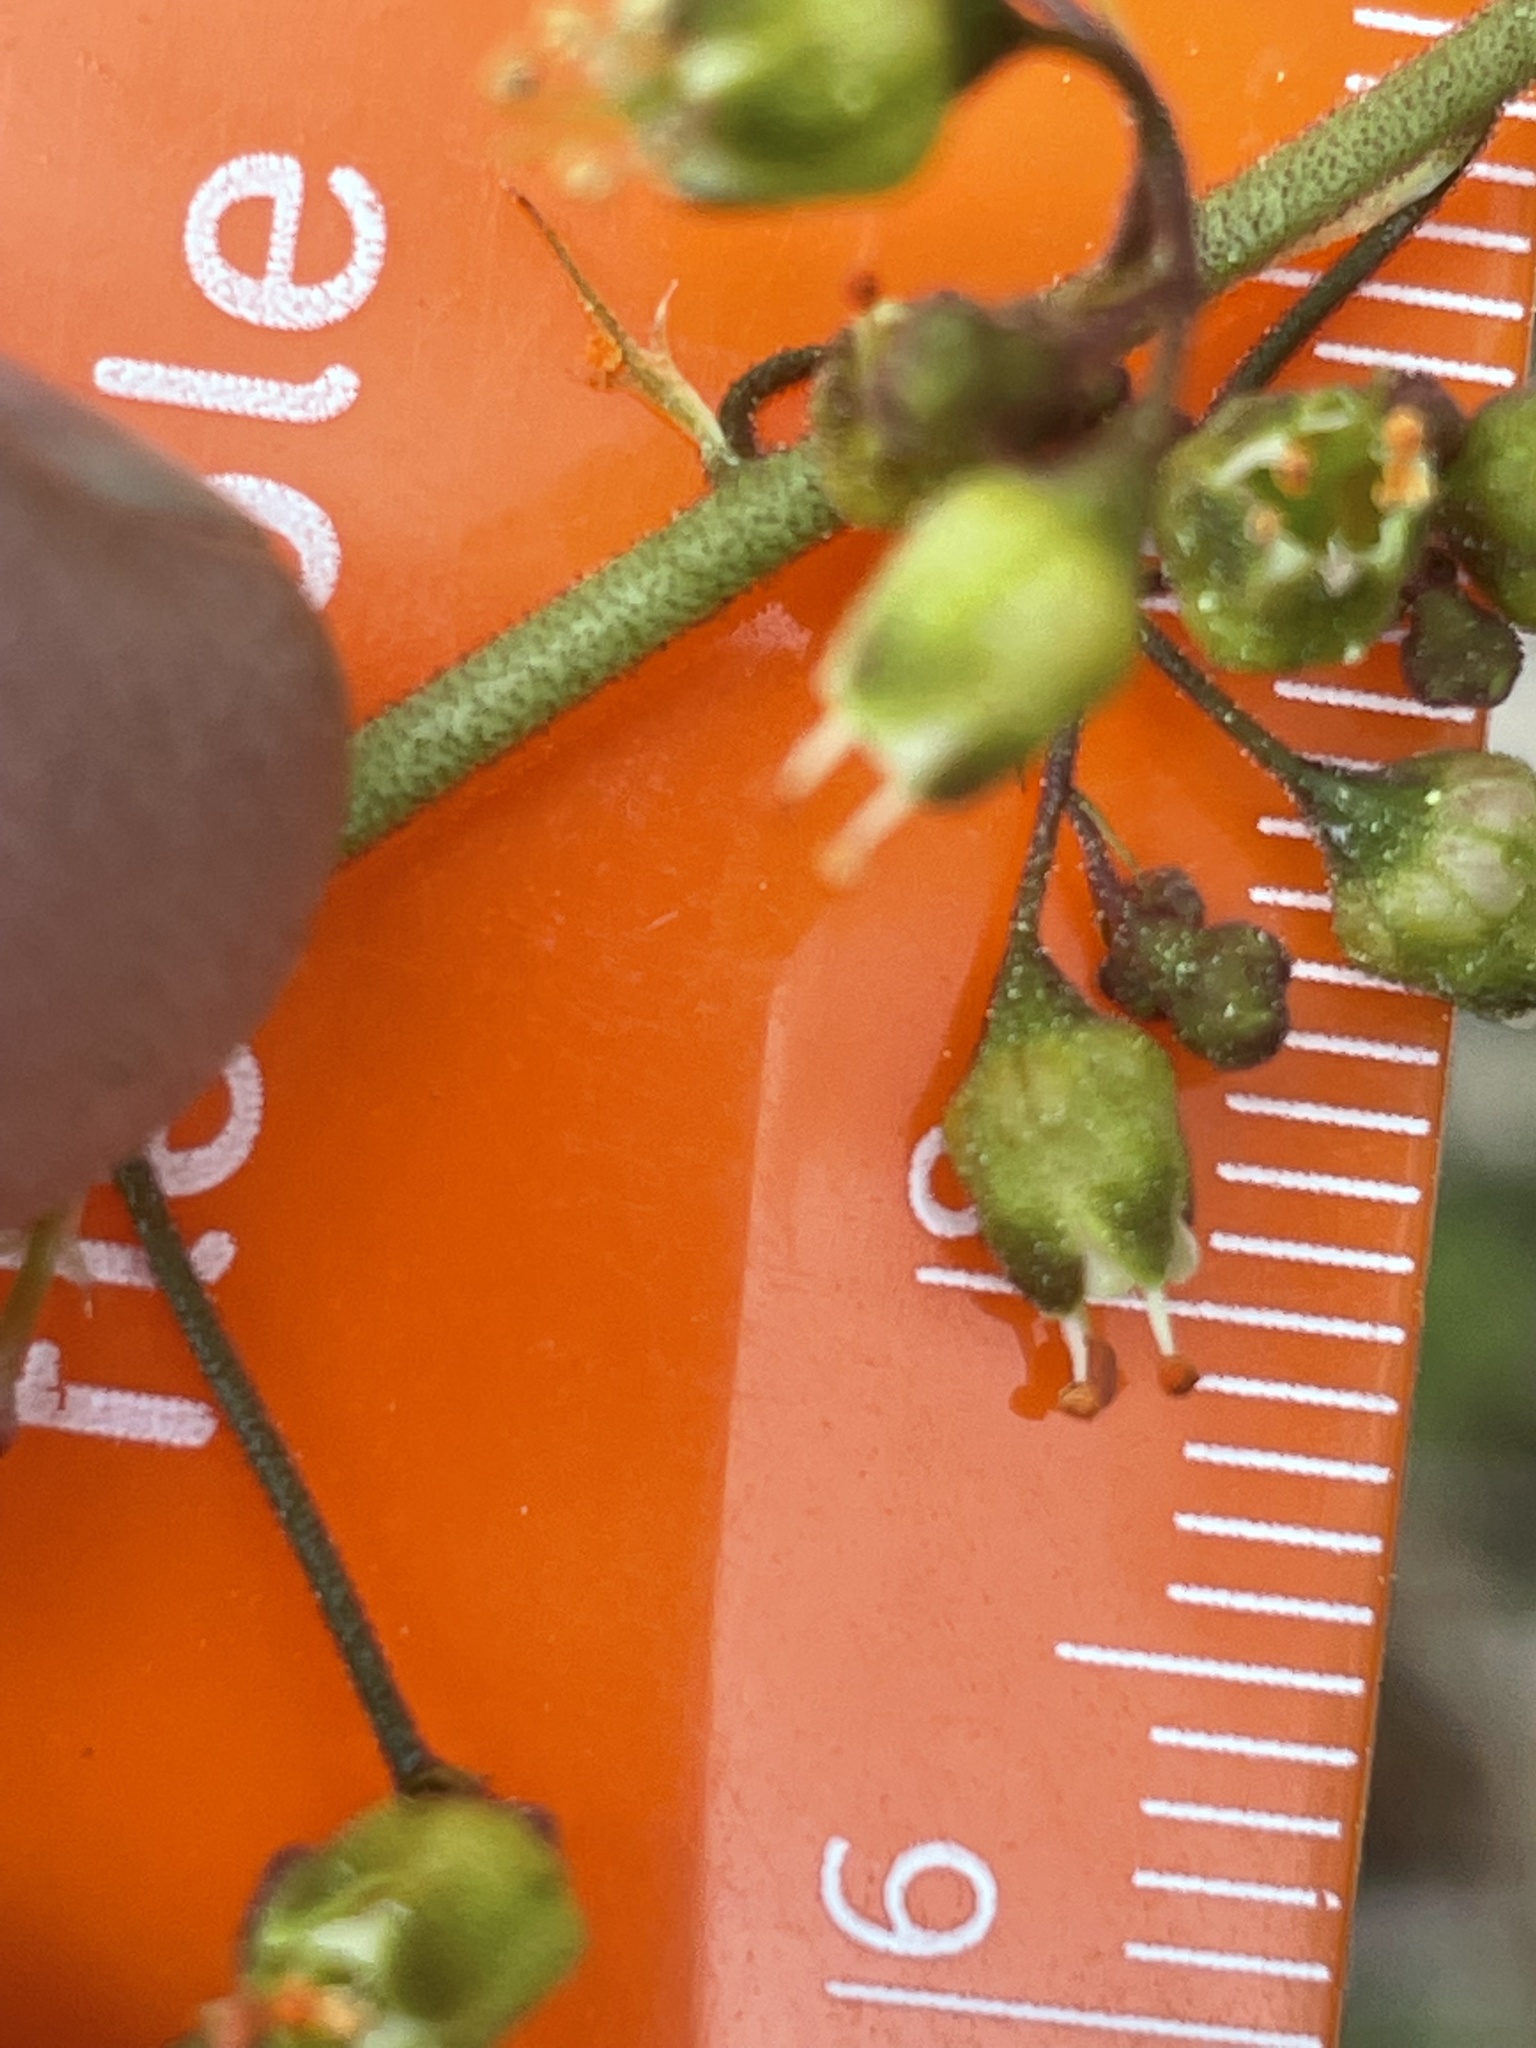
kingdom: Plantae
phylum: Tracheophyta
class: Magnoliopsida
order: Saxifragales
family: Saxifragaceae
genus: Heuchera
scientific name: Heuchera caroliniana
